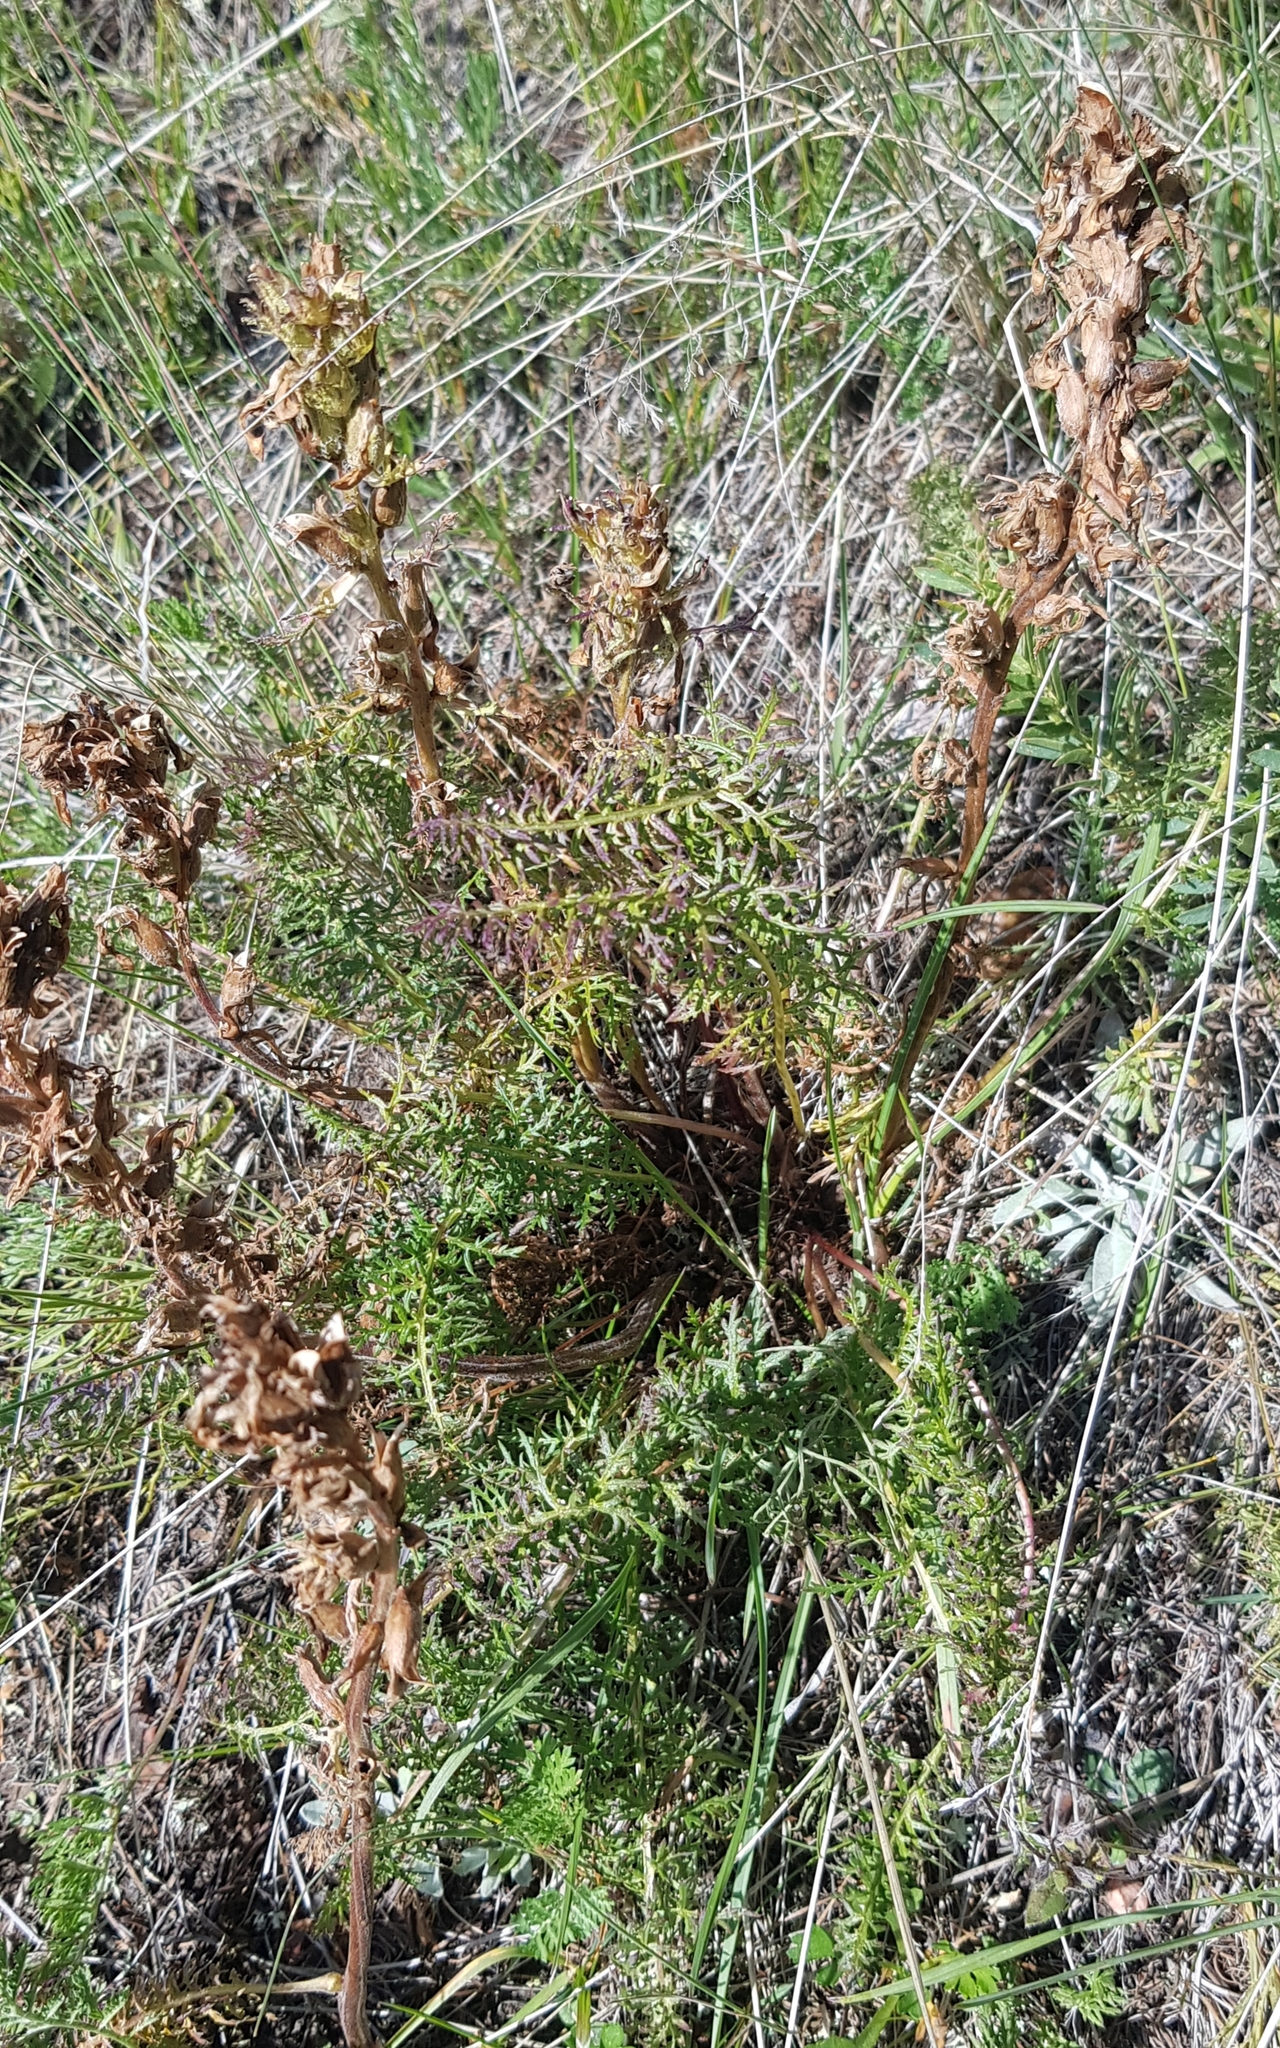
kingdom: Plantae
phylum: Tracheophyta
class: Magnoliopsida
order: Lamiales
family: Orobanchaceae
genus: Pedicularis
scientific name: Pedicularis rubens
